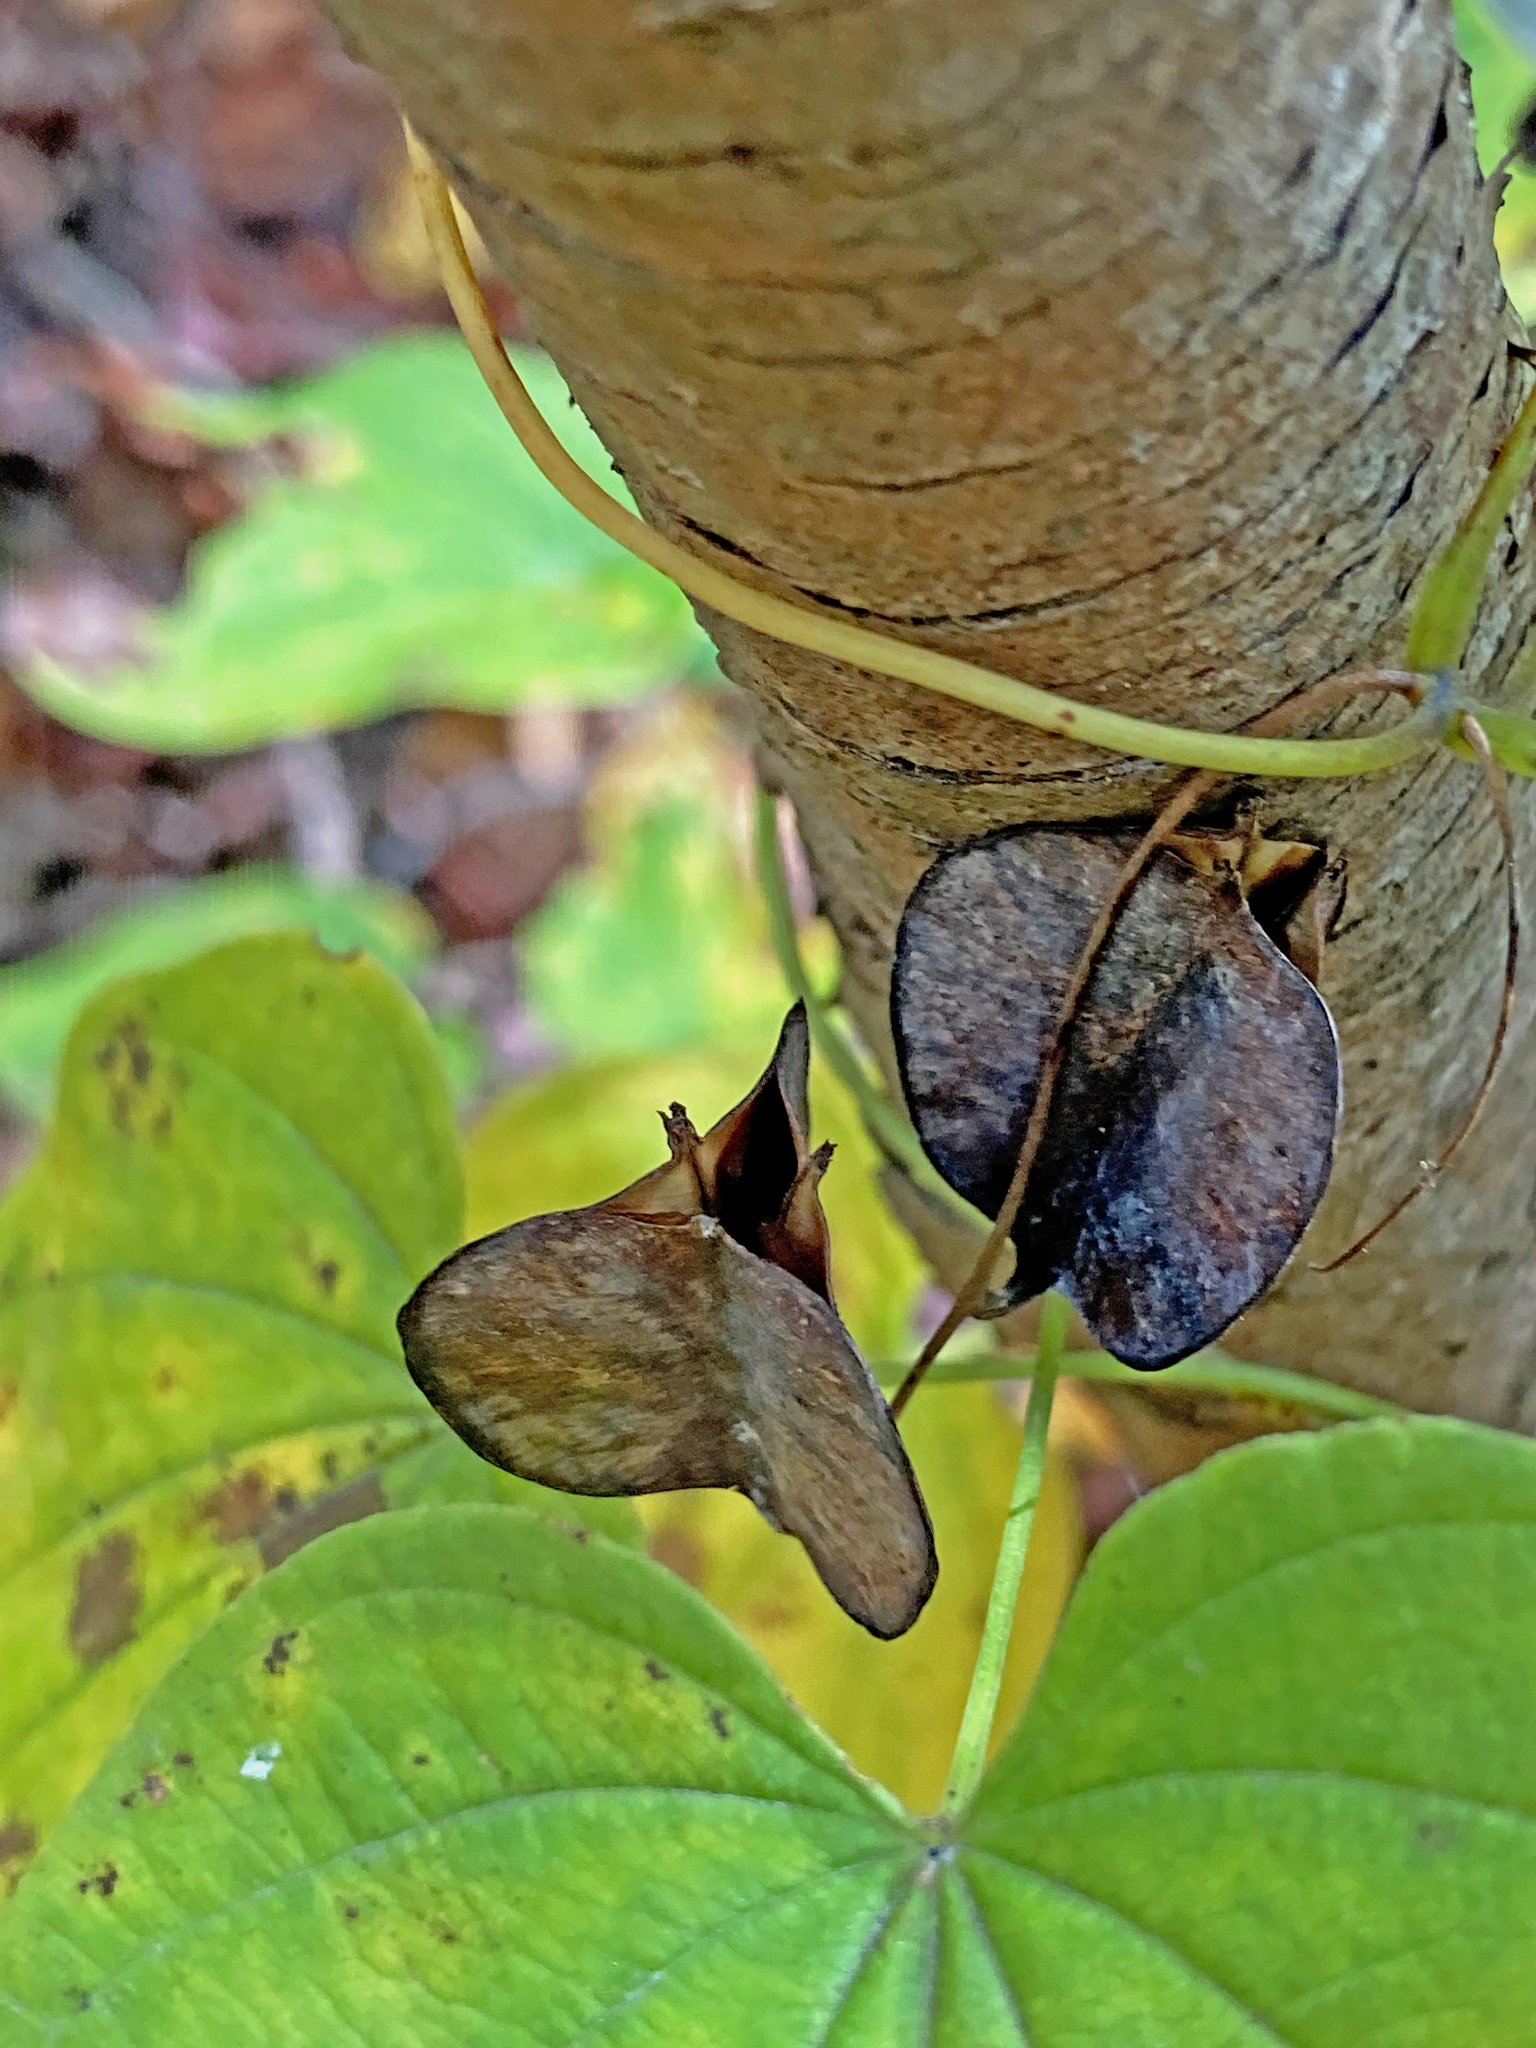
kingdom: Plantae
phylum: Tracheophyta
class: Liliopsida
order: Dioscoreales
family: Dioscoreaceae
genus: Dioscorea
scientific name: Dioscorea villosa
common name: Wild yam
